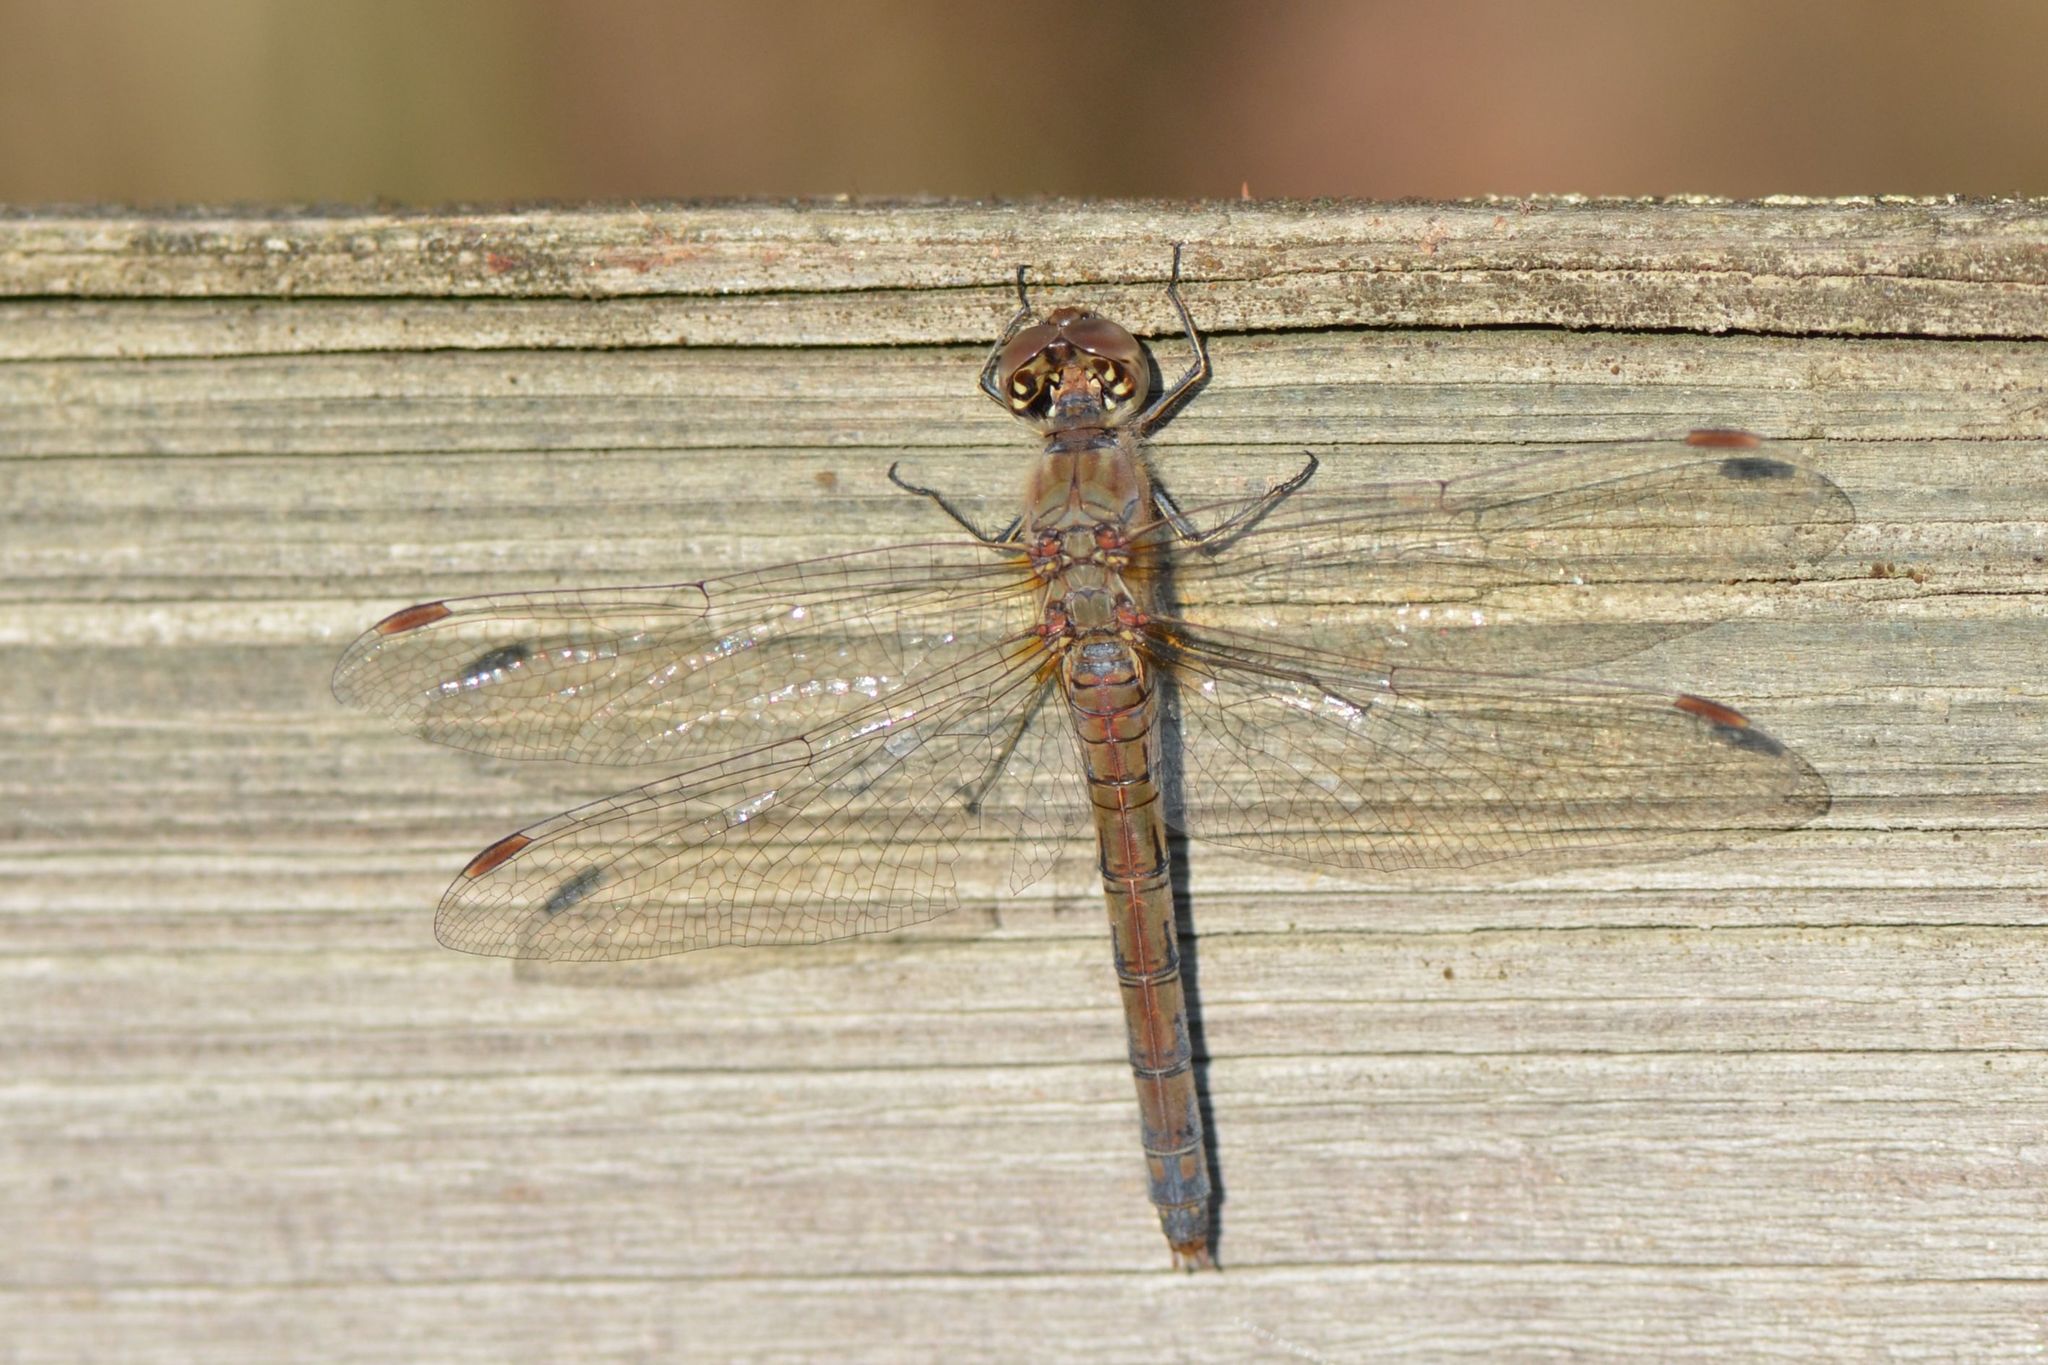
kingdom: Animalia
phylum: Arthropoda
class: Insecta
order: Odonata
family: Libellulidae
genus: Sympetrum
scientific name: Sympetrum striolatum
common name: Common darter
